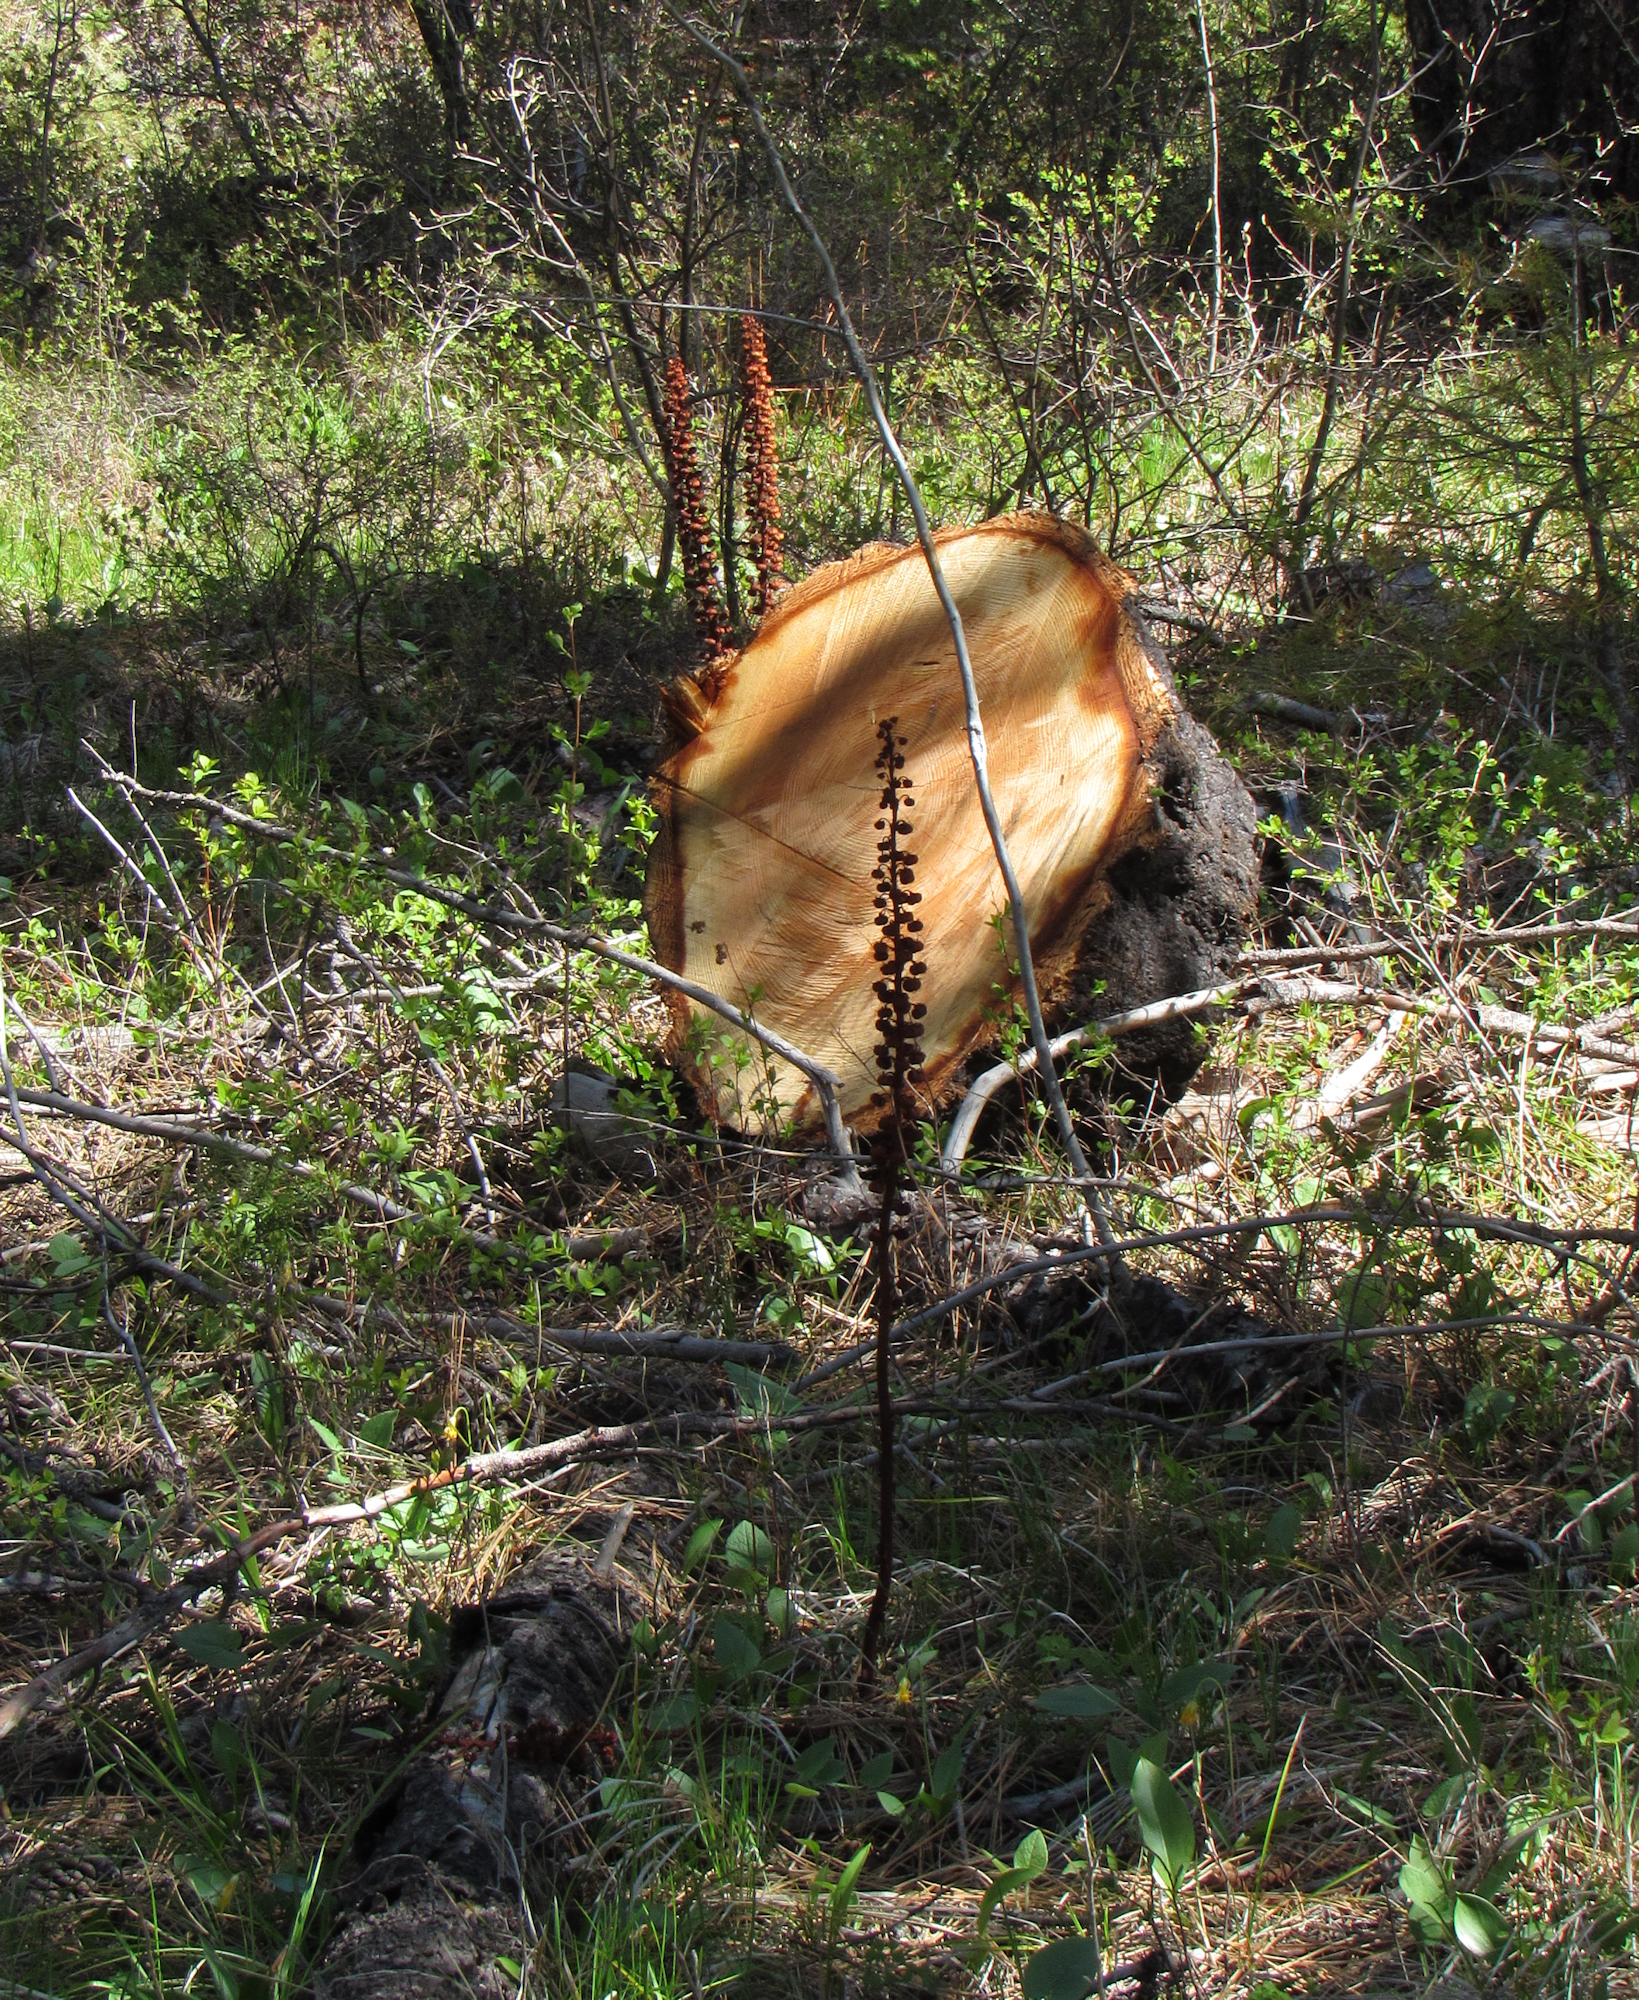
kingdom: Plantae
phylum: Tracheophyta
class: Magnoliopsida
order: Ericales
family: Ericaceae
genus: Pterospora
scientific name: Pterospora andromedea
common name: Giant bird's-nest
